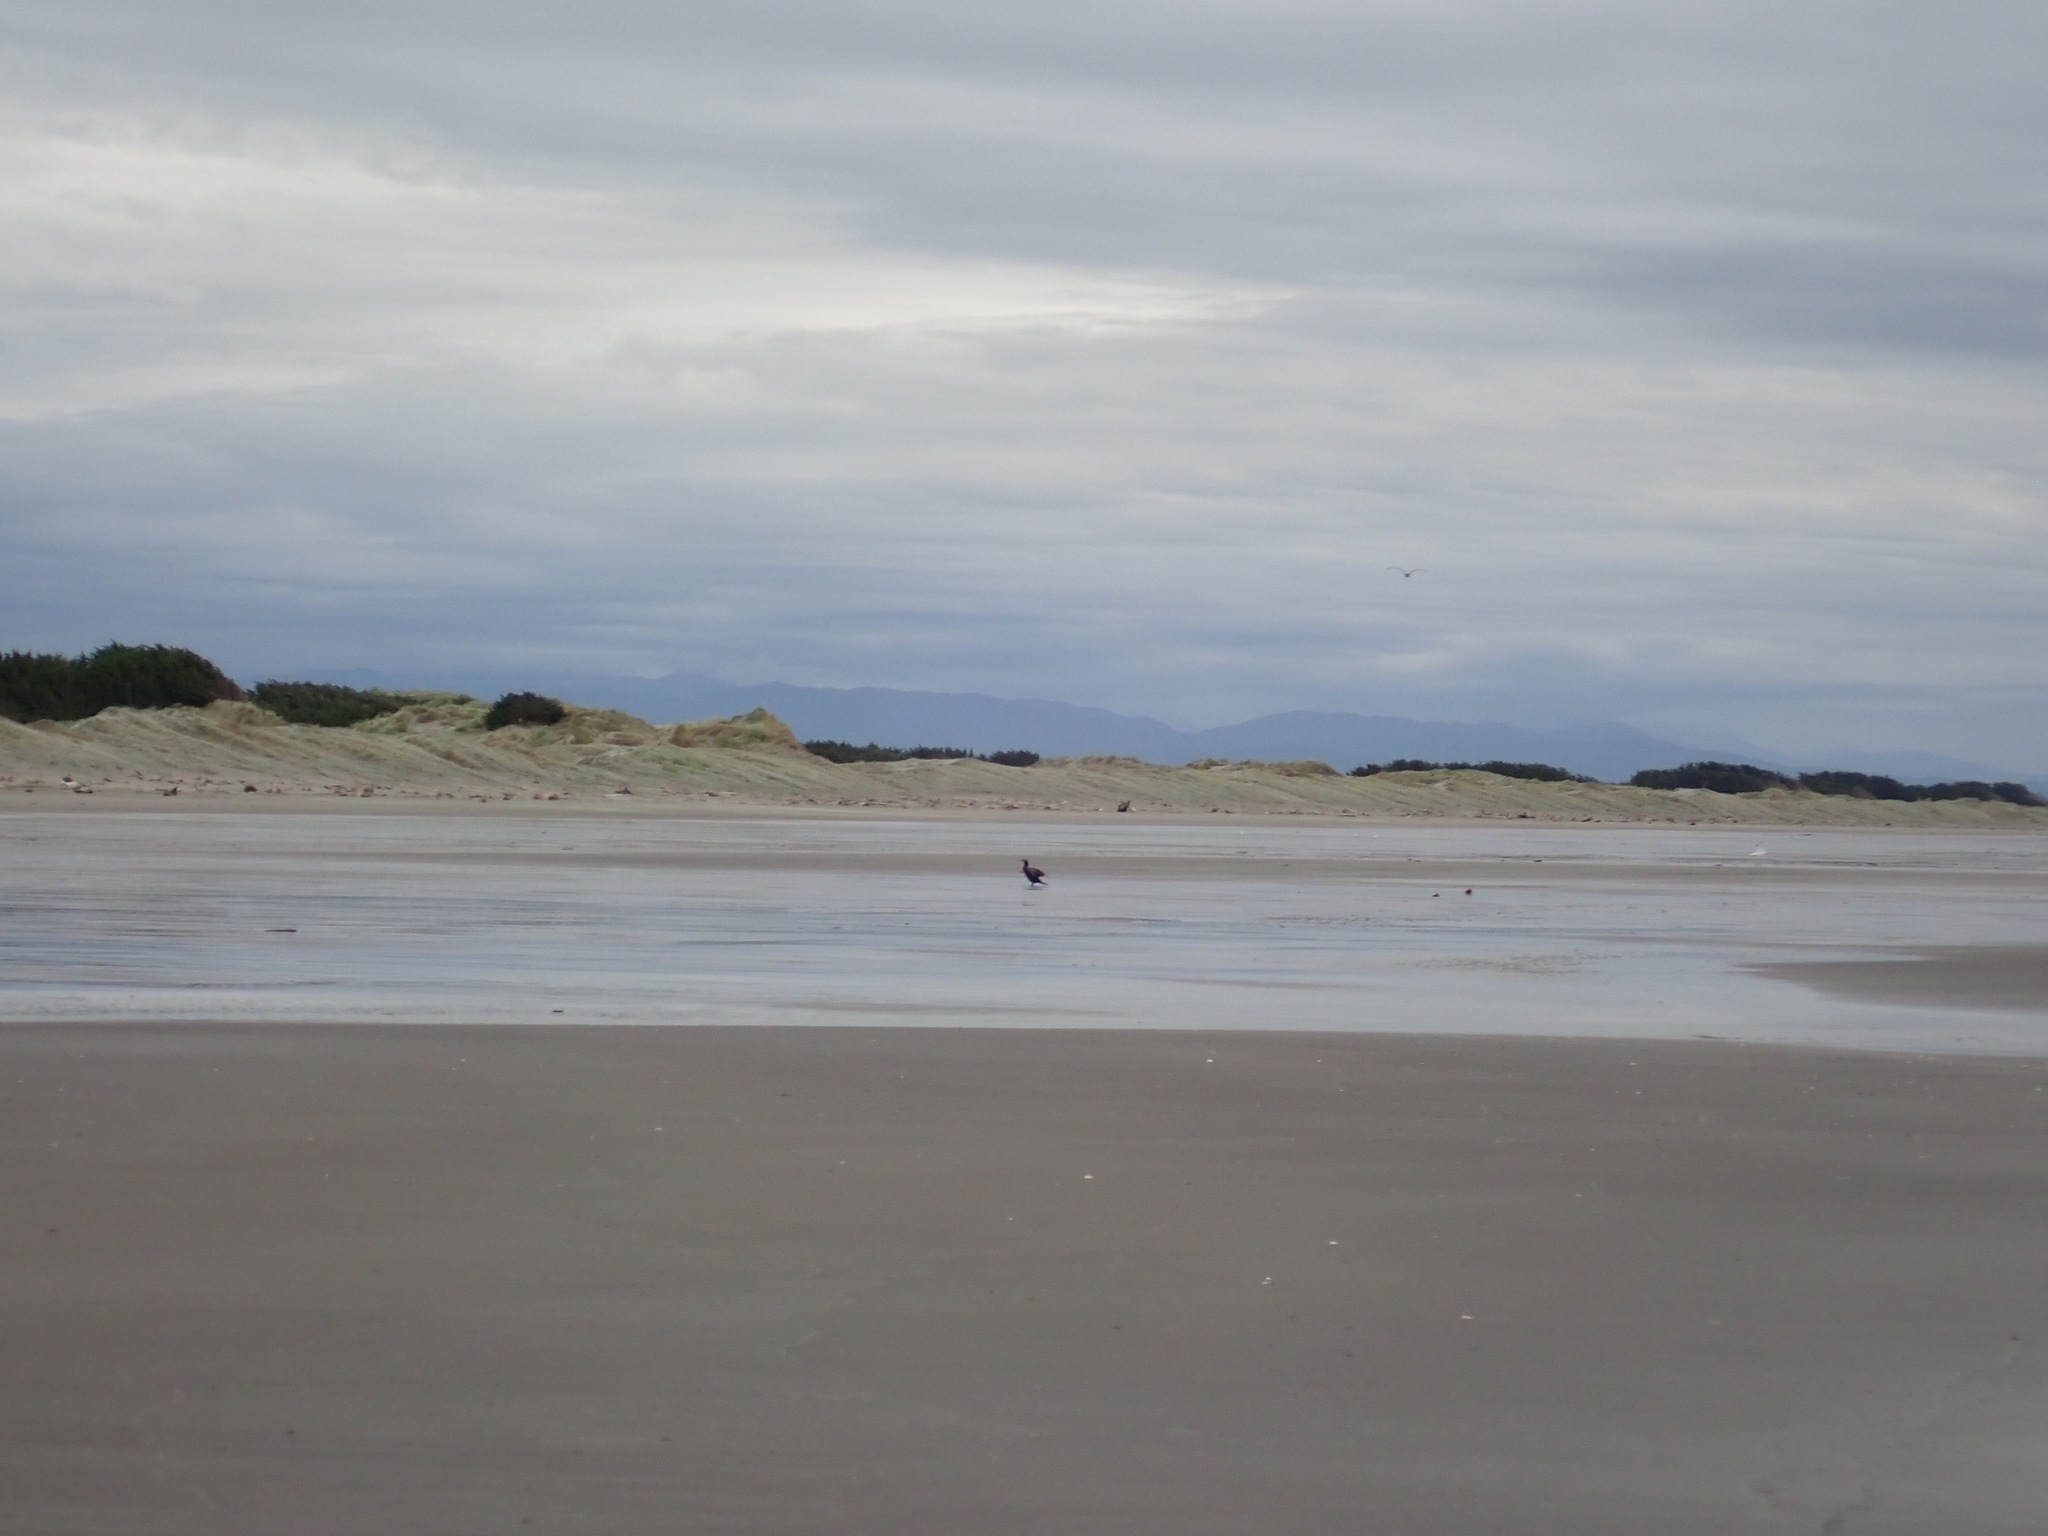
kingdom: Animalia
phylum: Chordata
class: Aves
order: Suliformes
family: Phalacrocoracidae
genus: Phalacrocorax
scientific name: Phalacrocorax carbo
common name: Great cormorant
